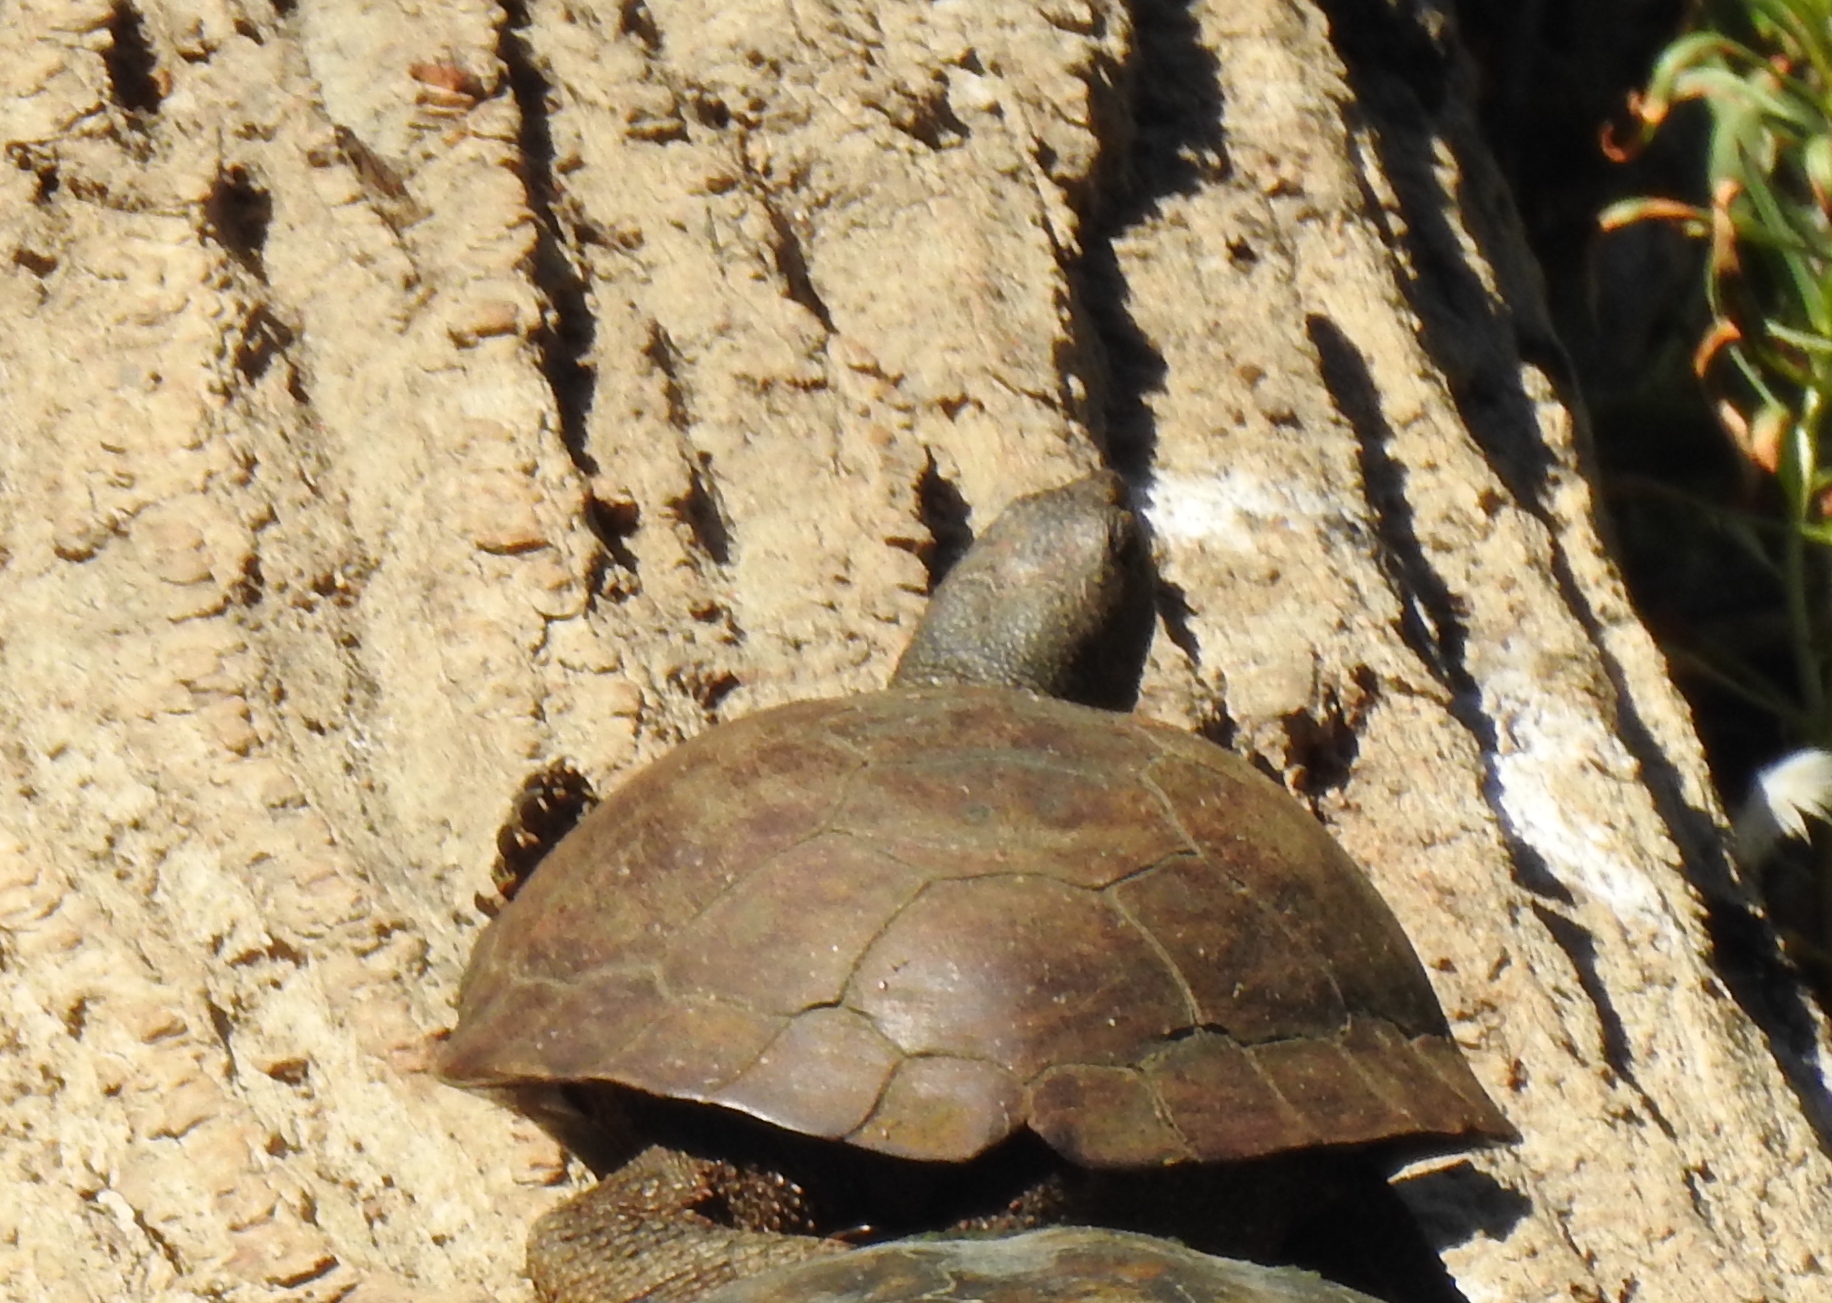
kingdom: Animalia
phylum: Chordata
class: Testudines
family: Emydidae
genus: Actinemys
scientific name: Actinemys marmorata
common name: Western pond turtle
